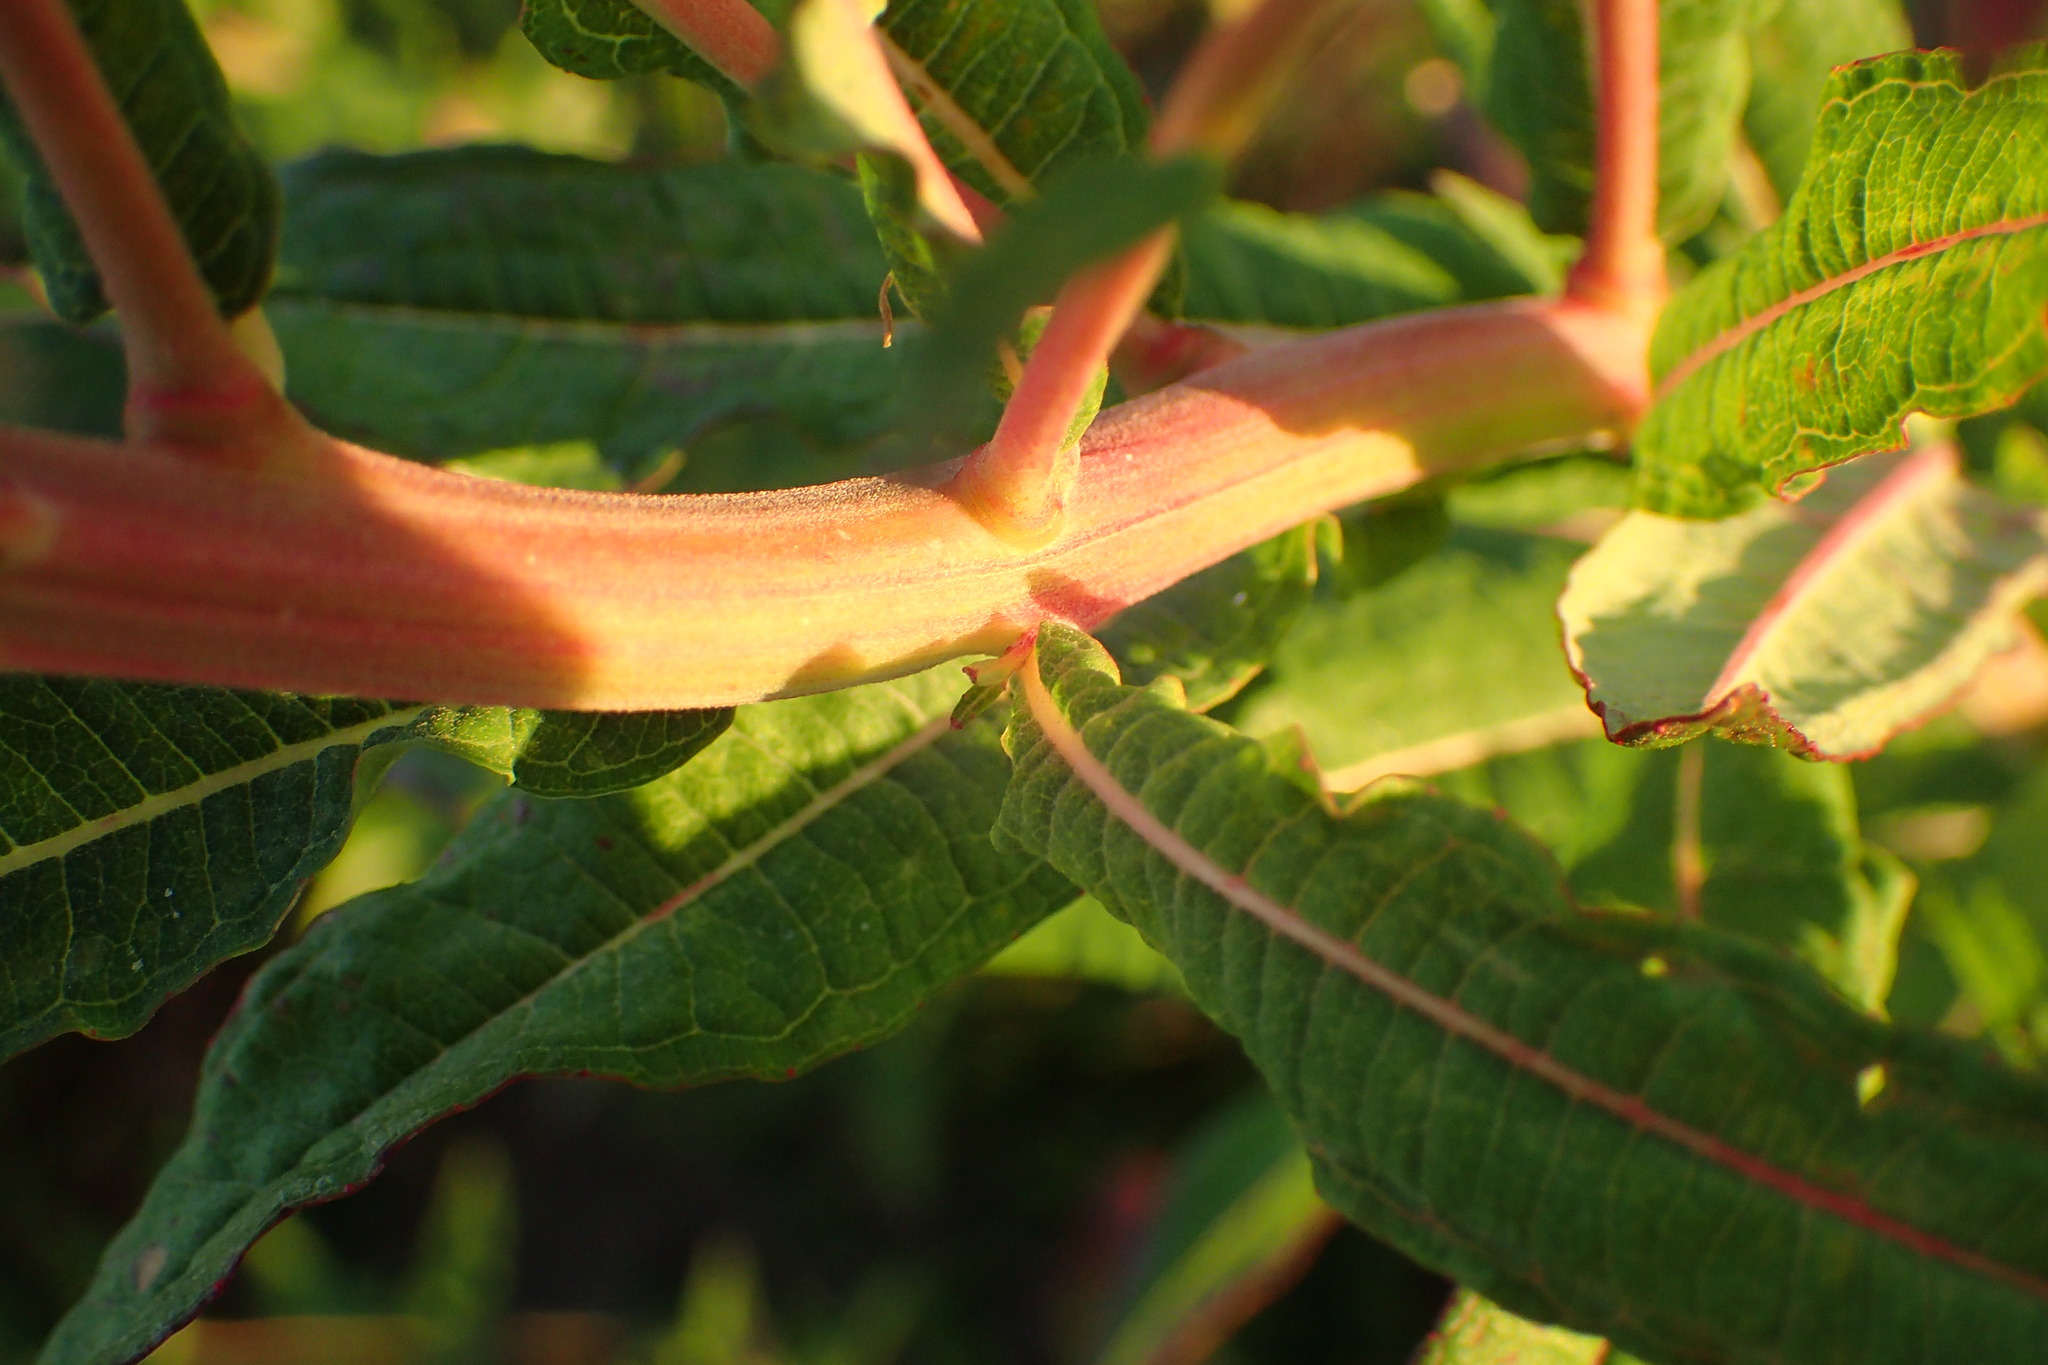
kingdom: Plantae
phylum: Tracheophyta
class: Magnoliopsida
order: Myrtales
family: Onagraceae
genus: Chamaenerion
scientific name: Chamaenerion angustifolium
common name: Fireweed
